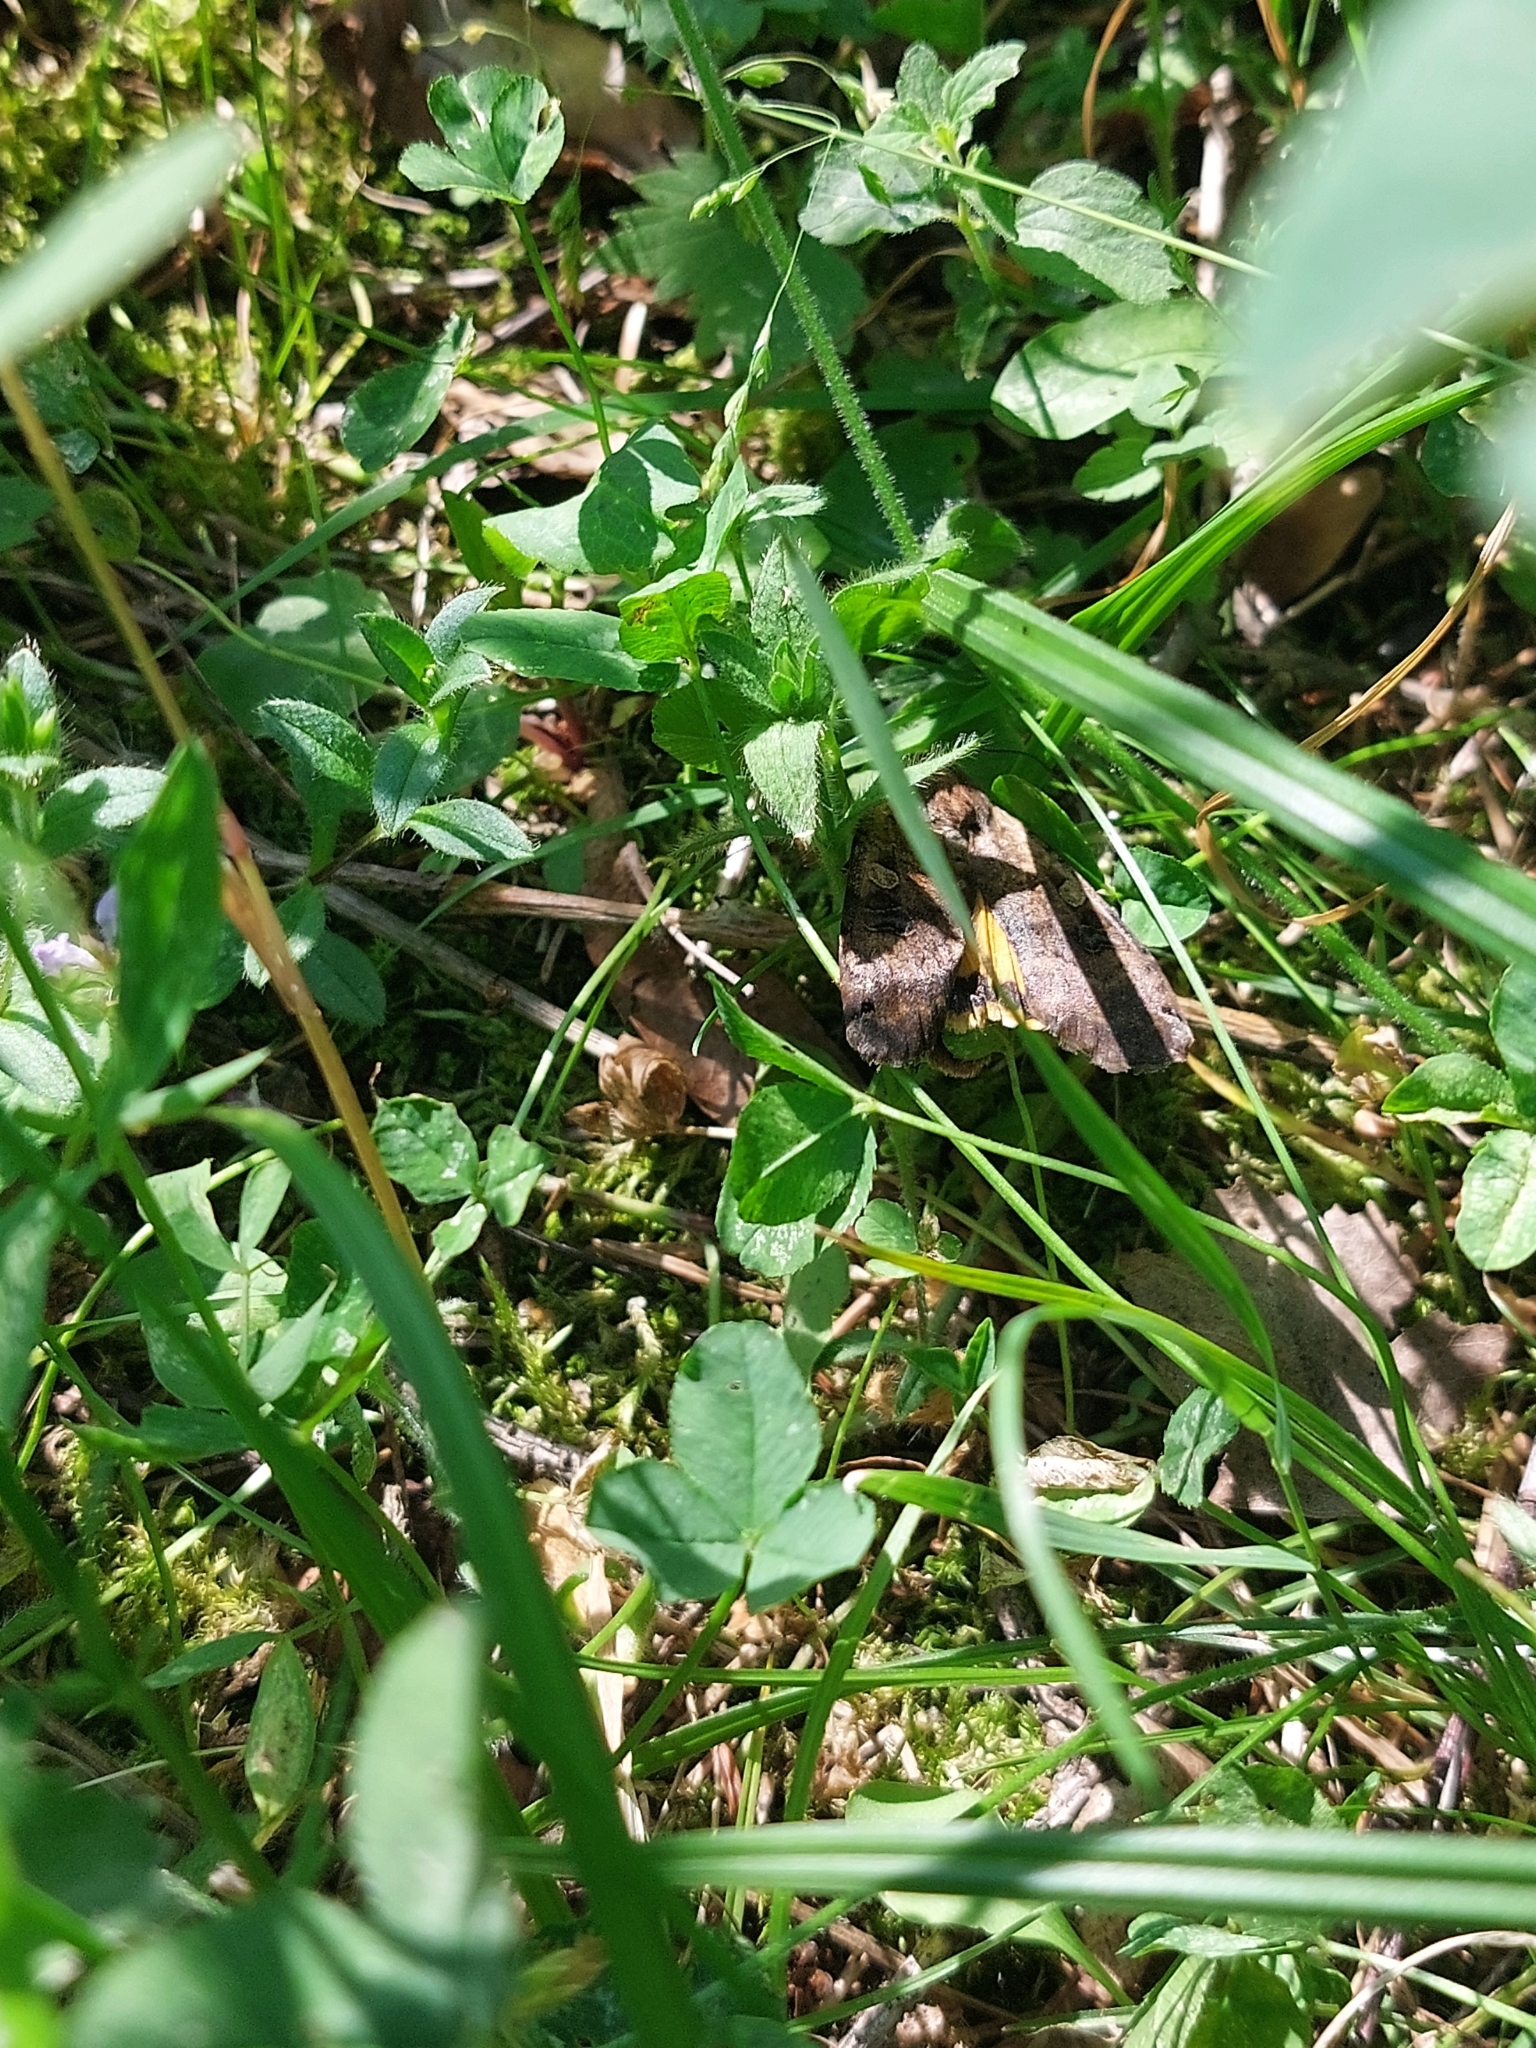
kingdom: Animalia
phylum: Arthropoda
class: Insecta
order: Lepidoptera
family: Noctuidae
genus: Noctua
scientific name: Noctua pronuba
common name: Large yellow underwing
